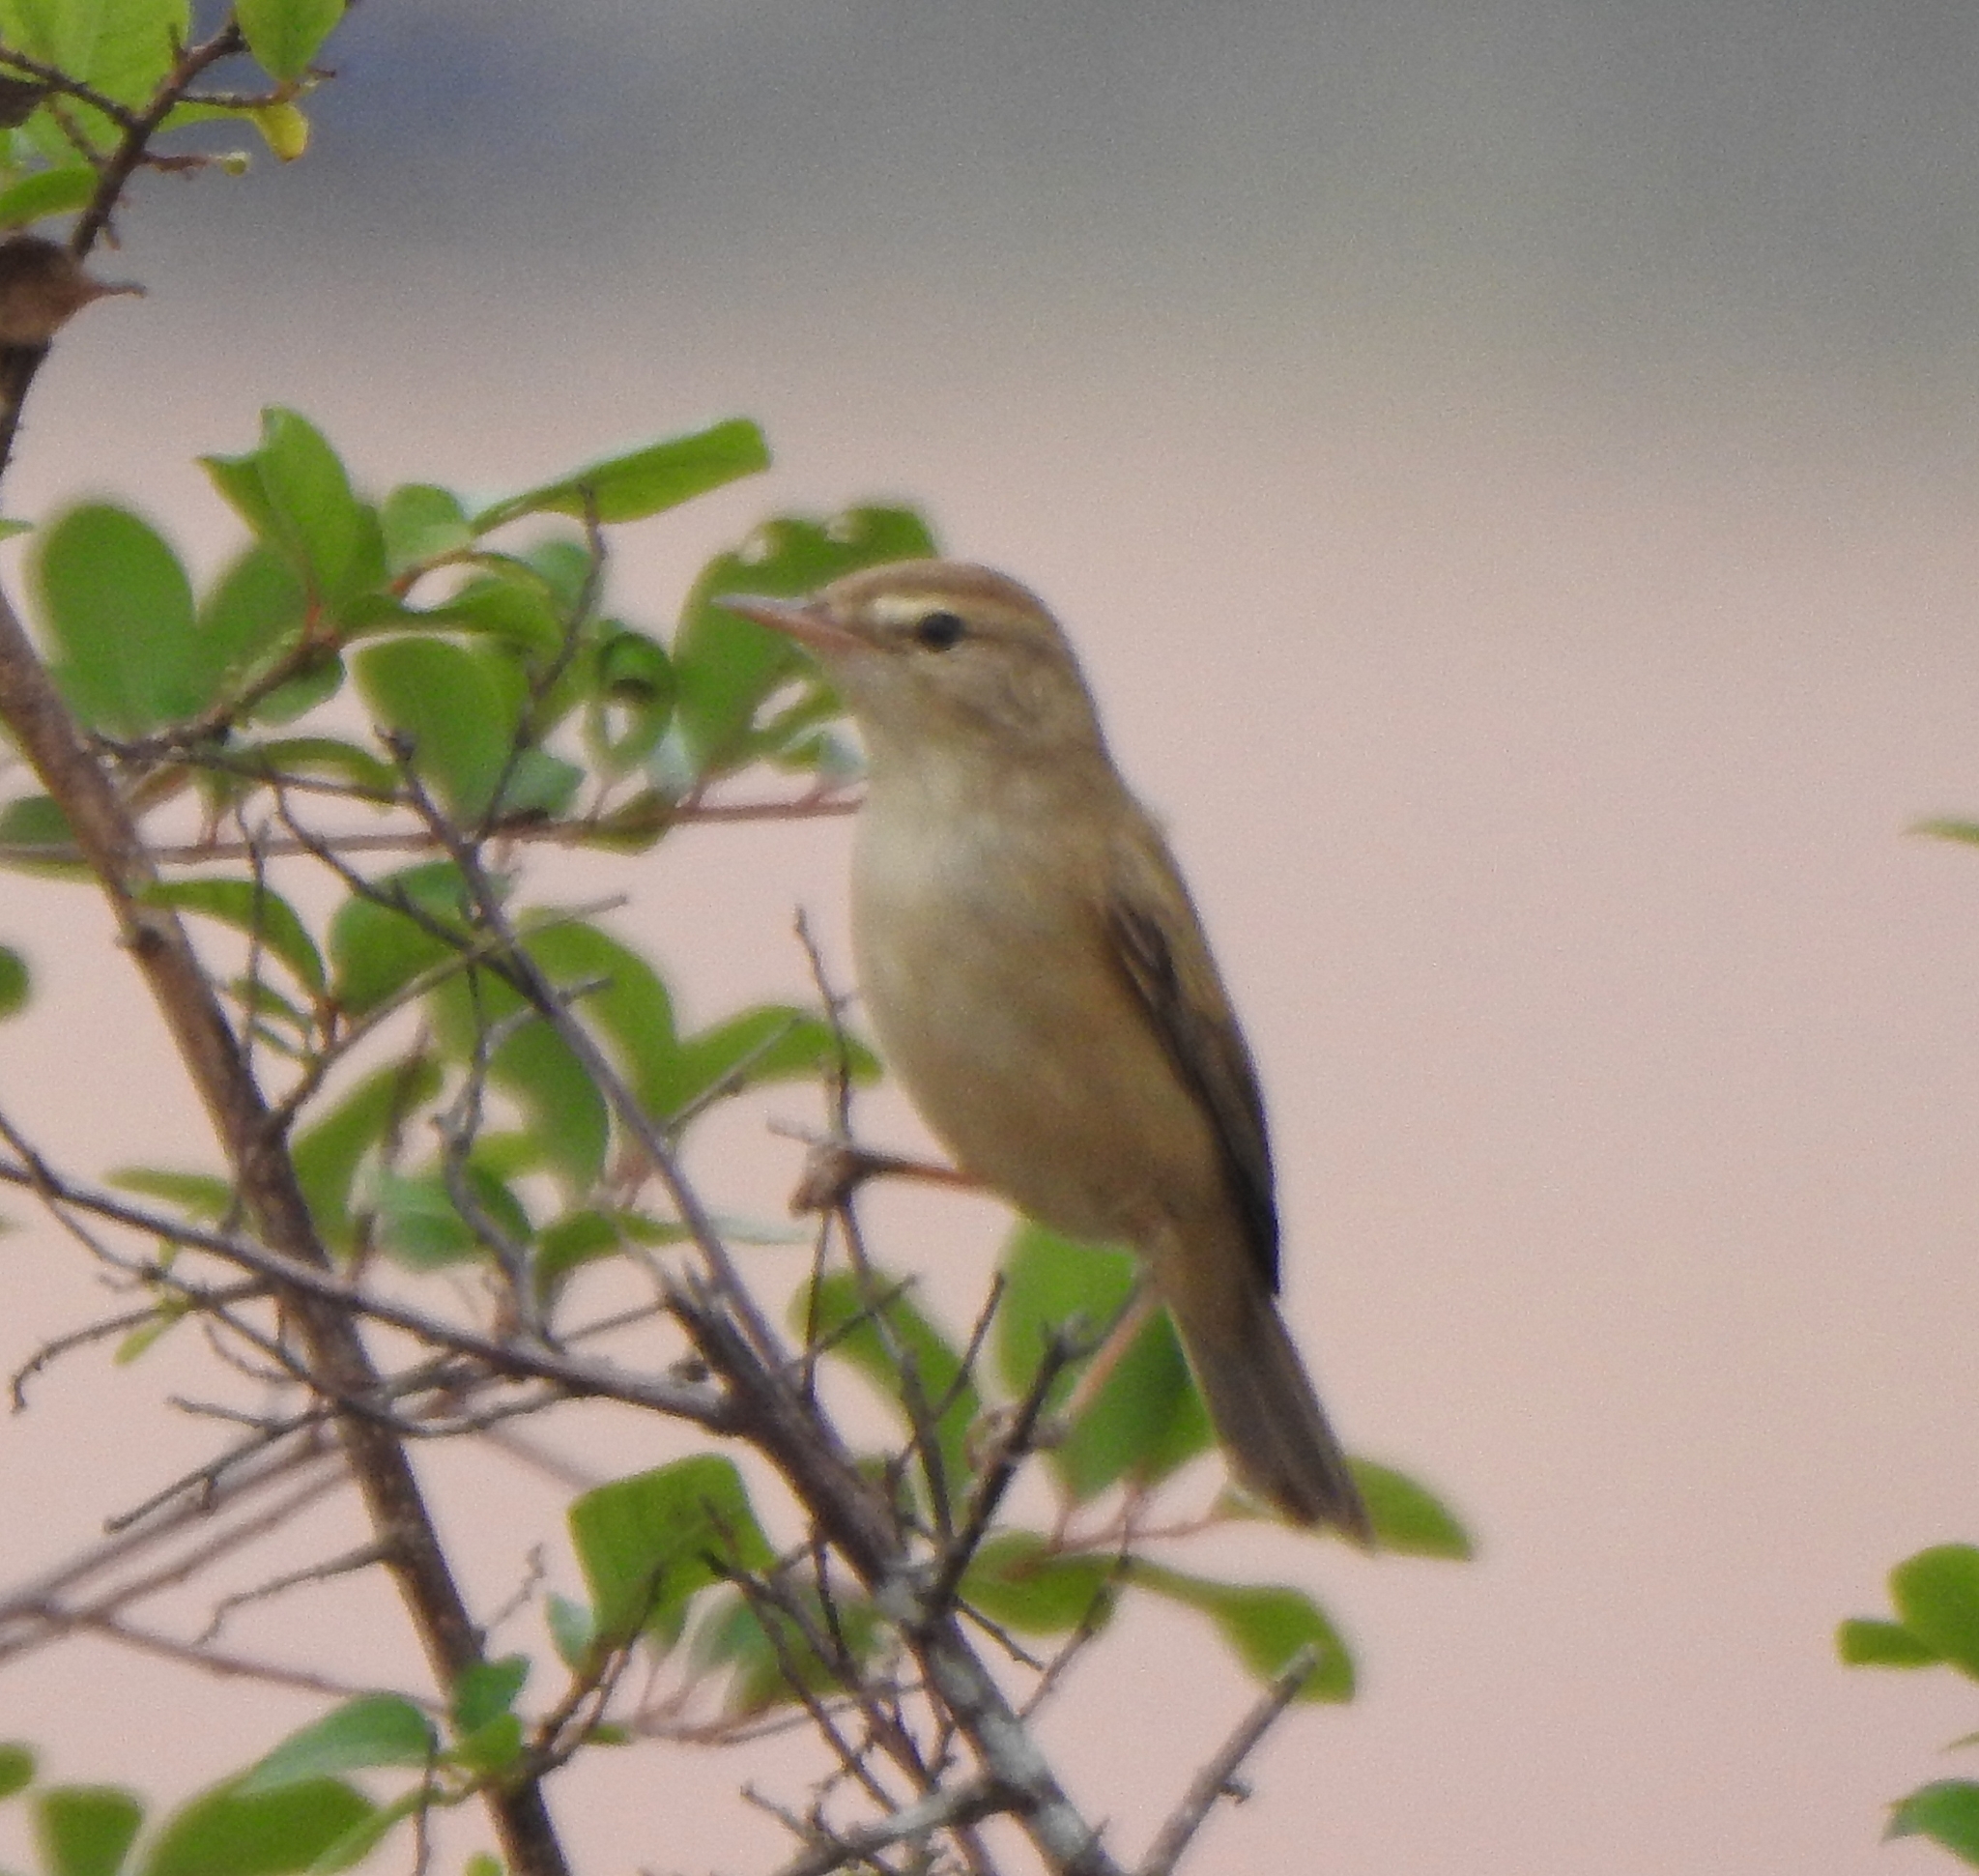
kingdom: Animalia
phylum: Chordata
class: Aves
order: Passeriformes
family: Acrocephalidae
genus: Iduna
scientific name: Iduna caligata
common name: Booted warbler
